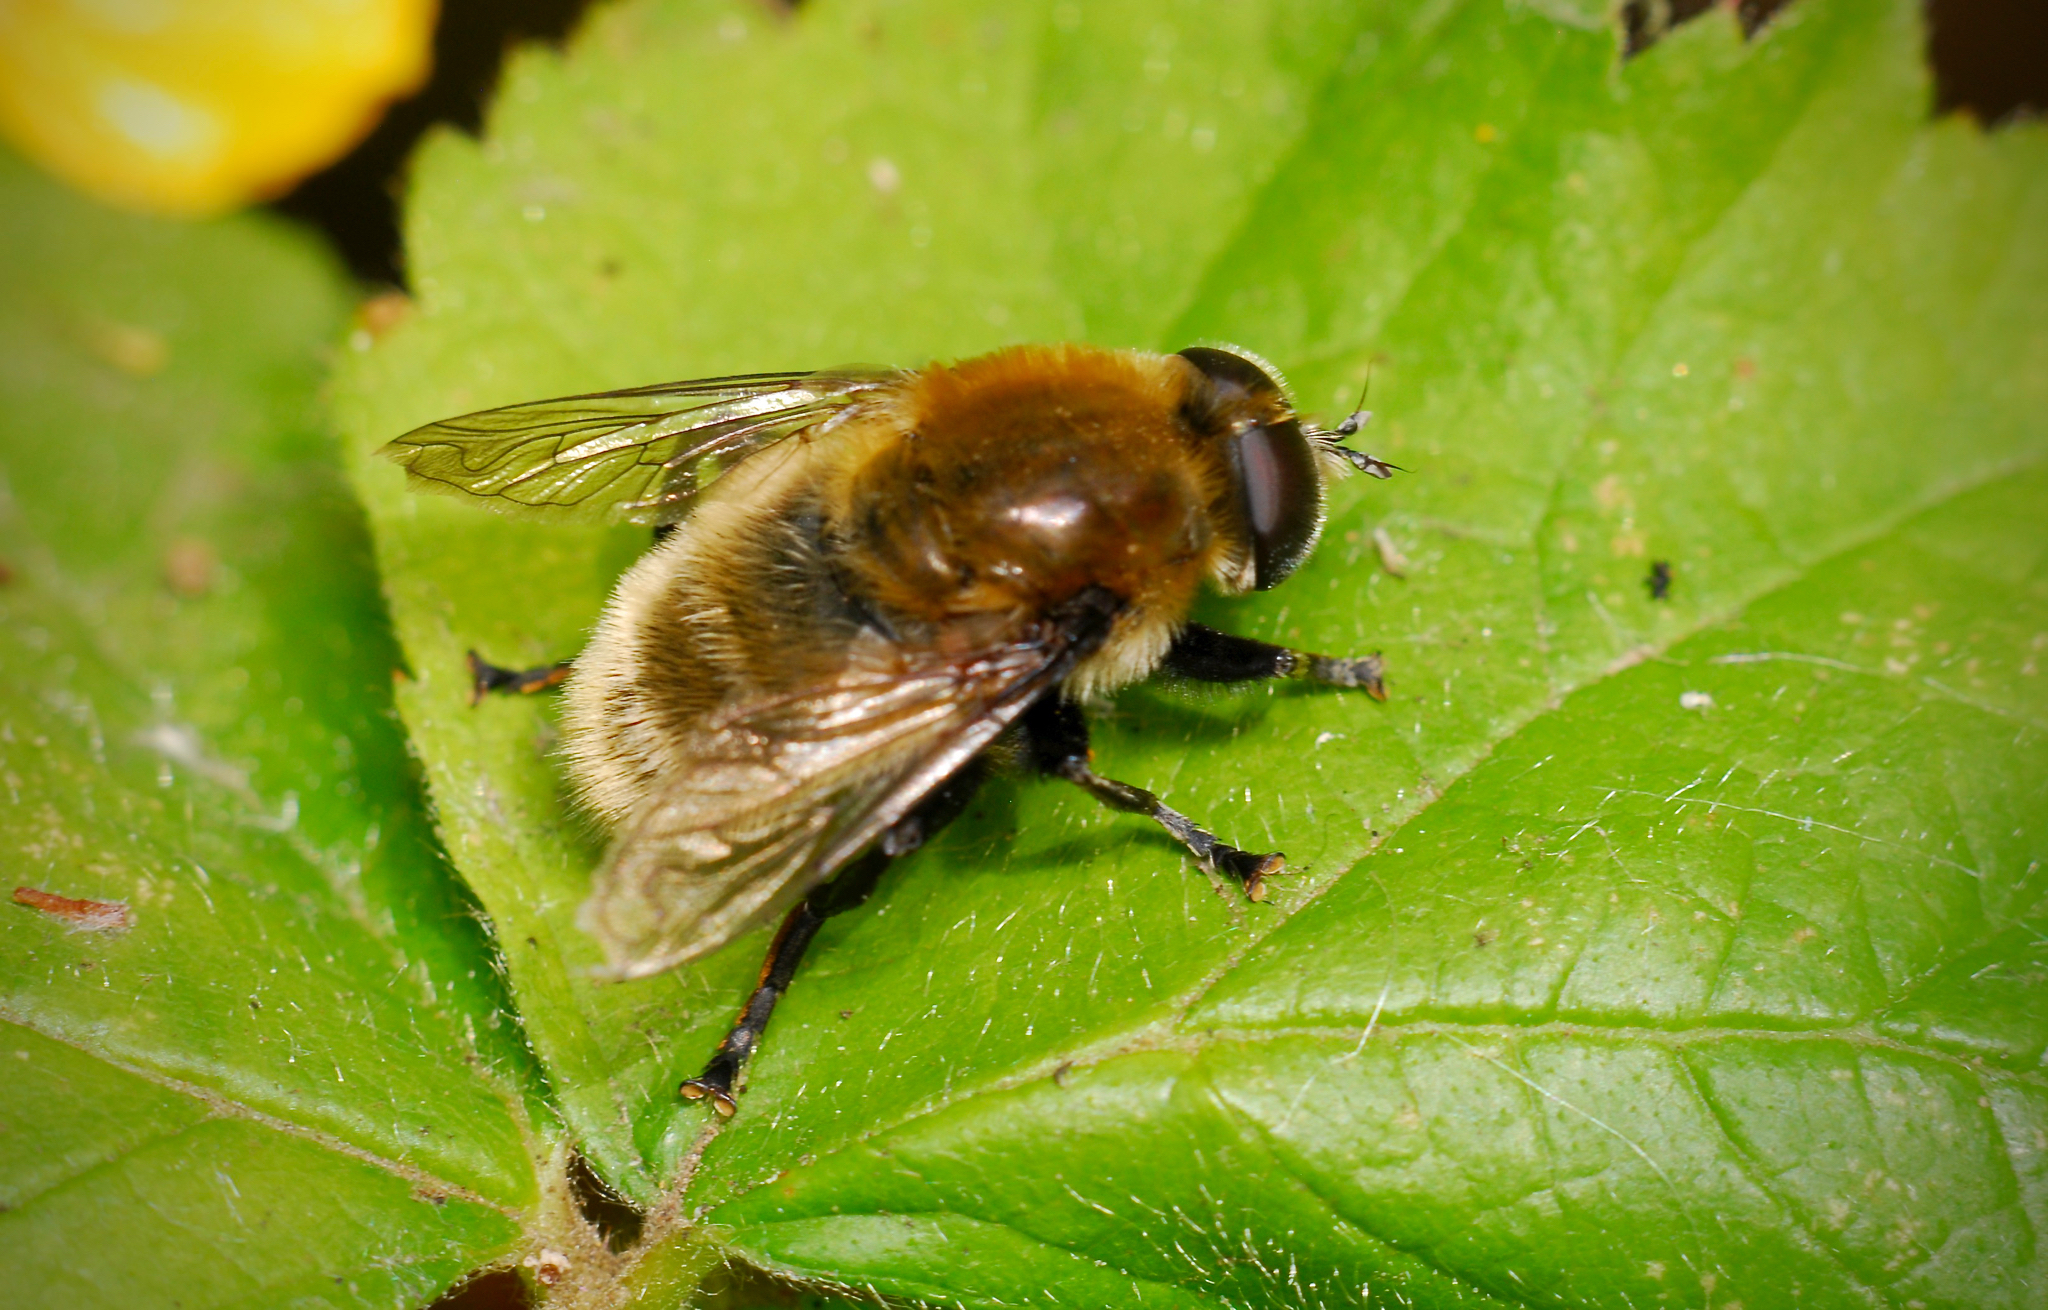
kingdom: Animalia
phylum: Arthropoda
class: Insecta
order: Diptera
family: Syrphidae
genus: Merodon
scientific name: Merodon equestris
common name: Greater bulb-fly
